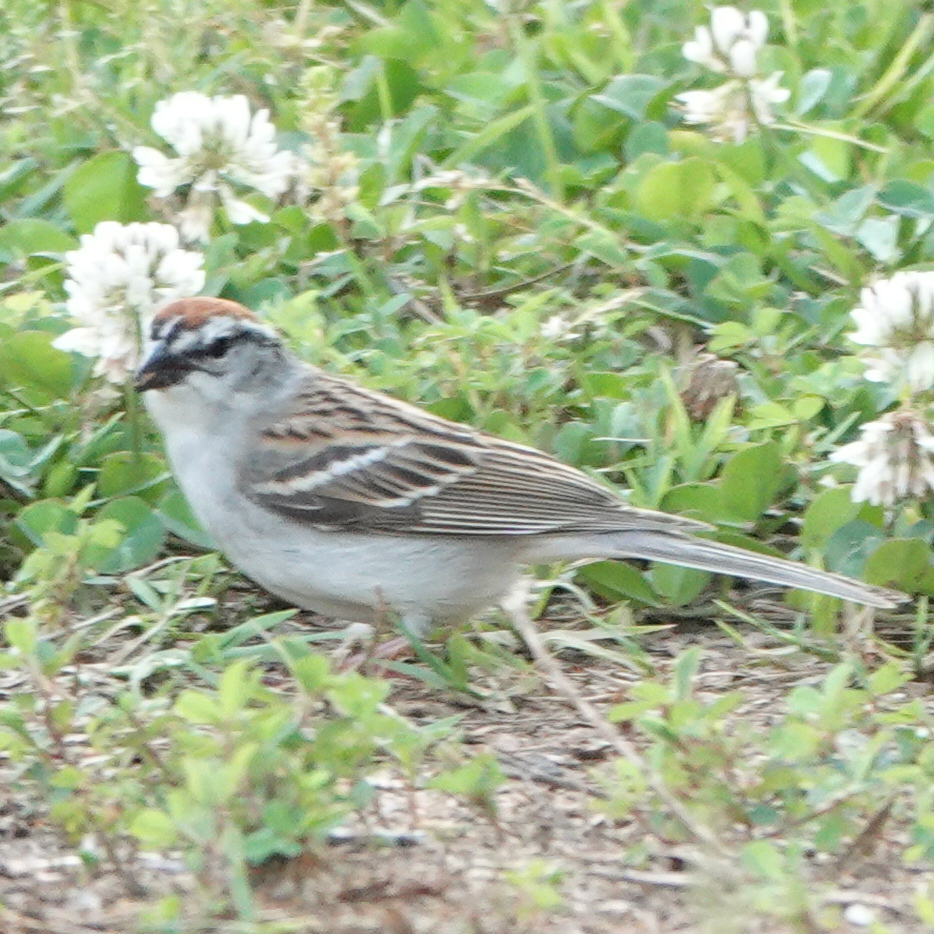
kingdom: Animalia
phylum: Chordata
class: Aves
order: Passeriformes
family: Passerellidae
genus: Spizella
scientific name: Spizella passerina
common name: Chipping sparrow
